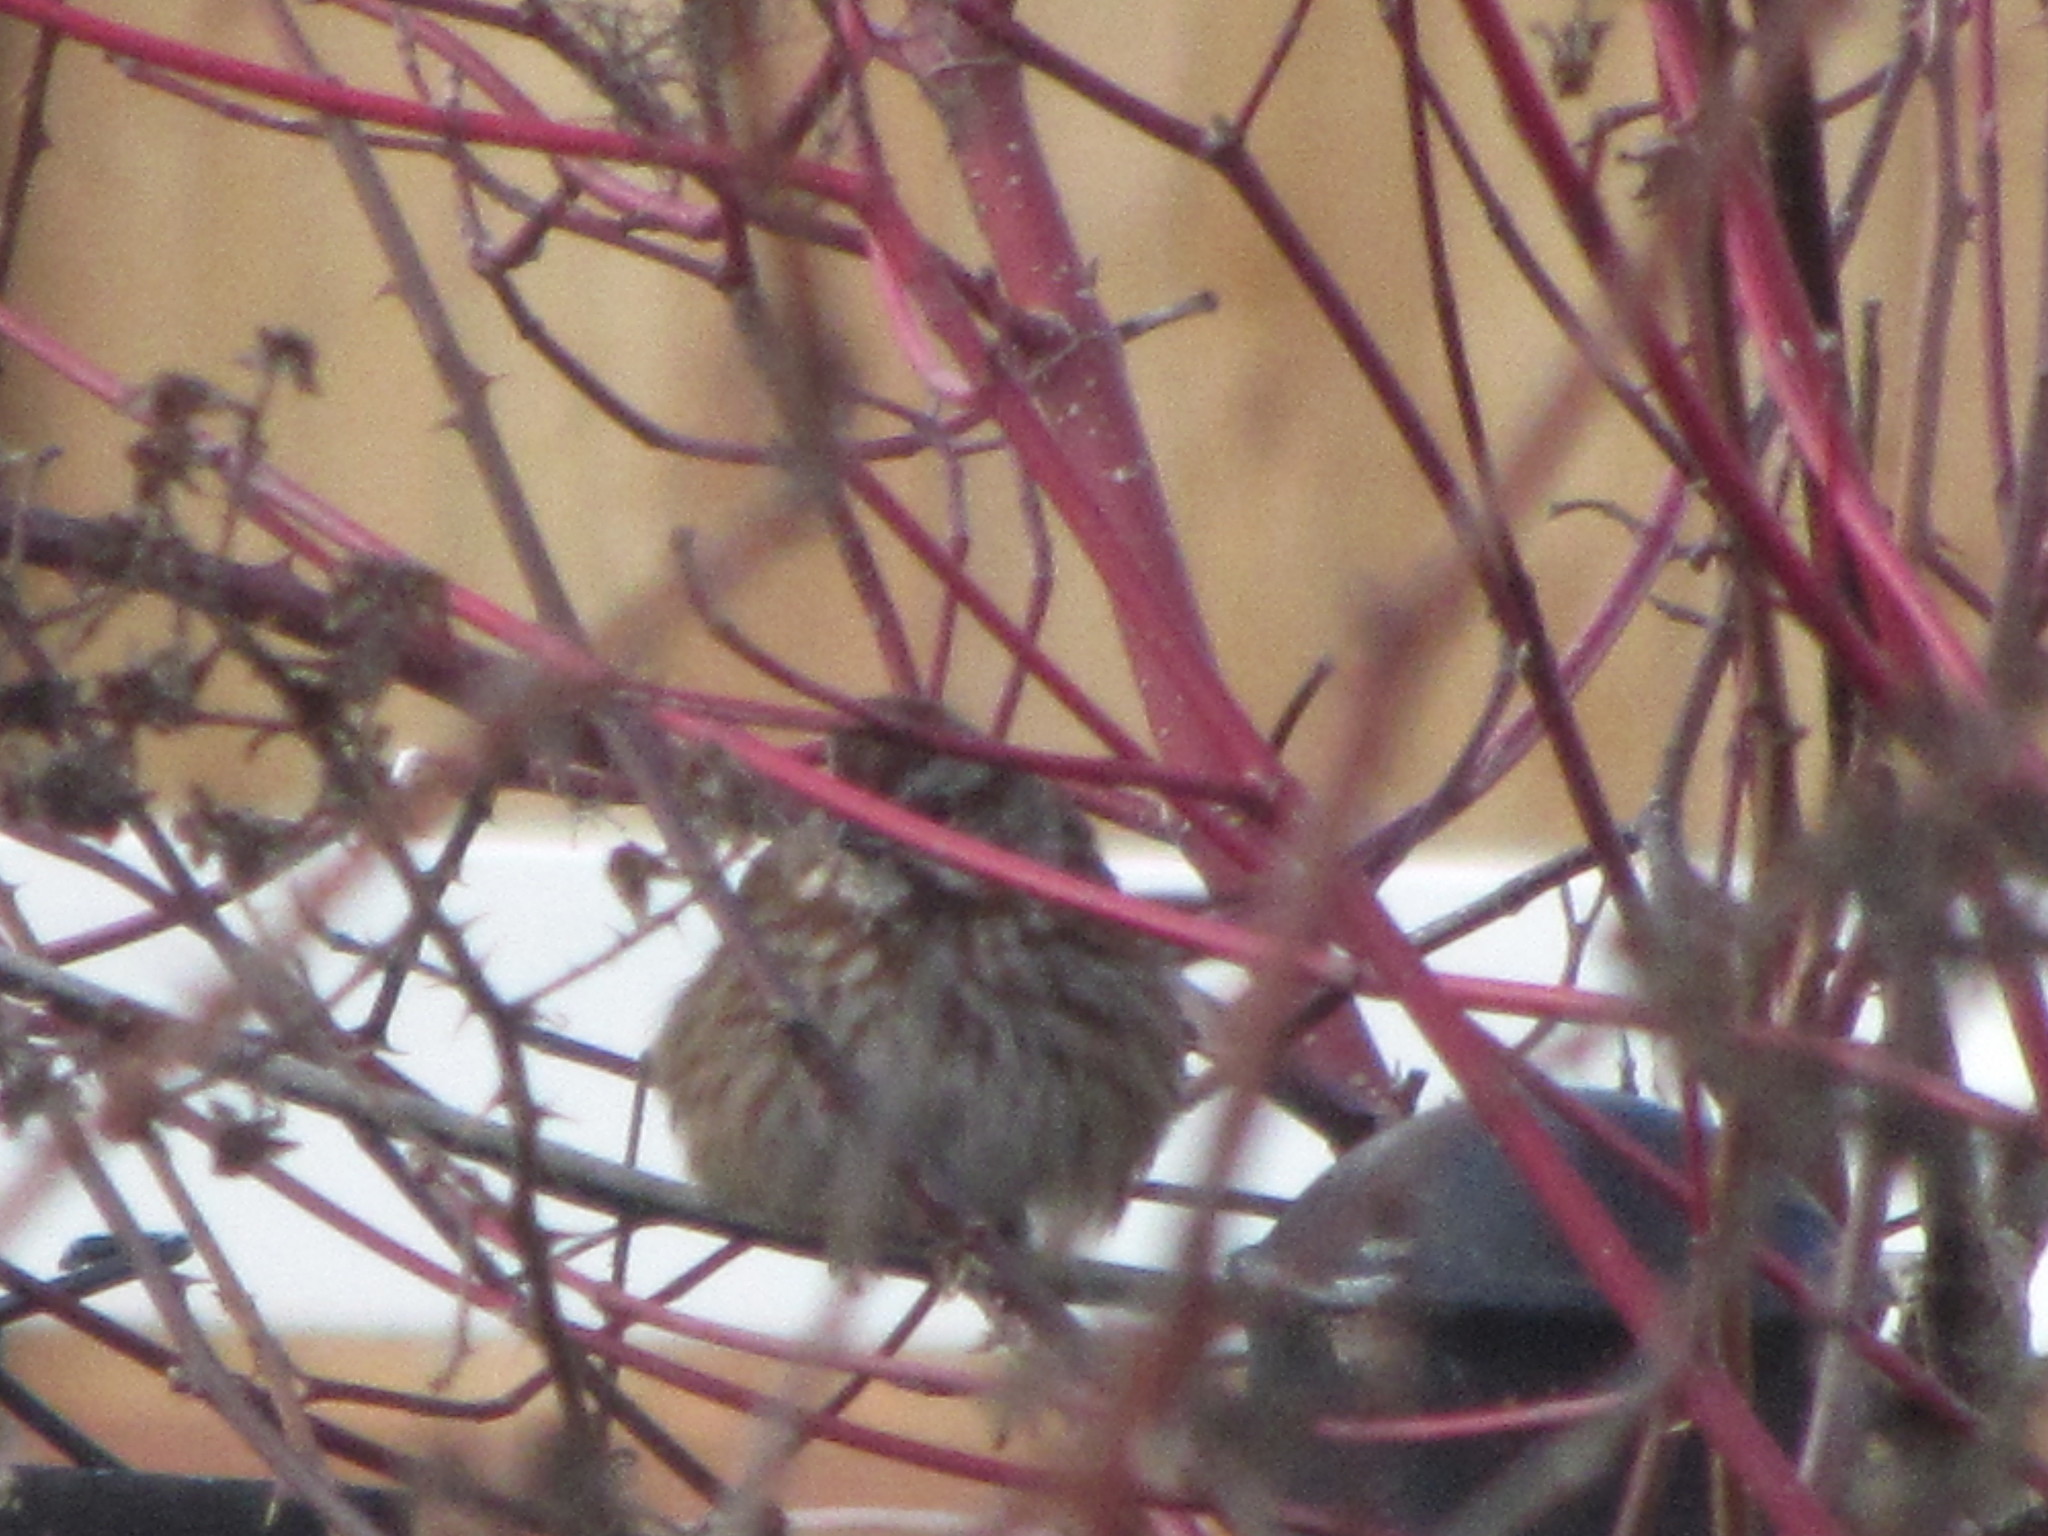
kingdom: Animalia
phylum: Chordata
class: Aves
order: Passeriformes
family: Passerellidae
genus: Melospiza
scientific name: Melospiza melodia
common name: Song sparrow
